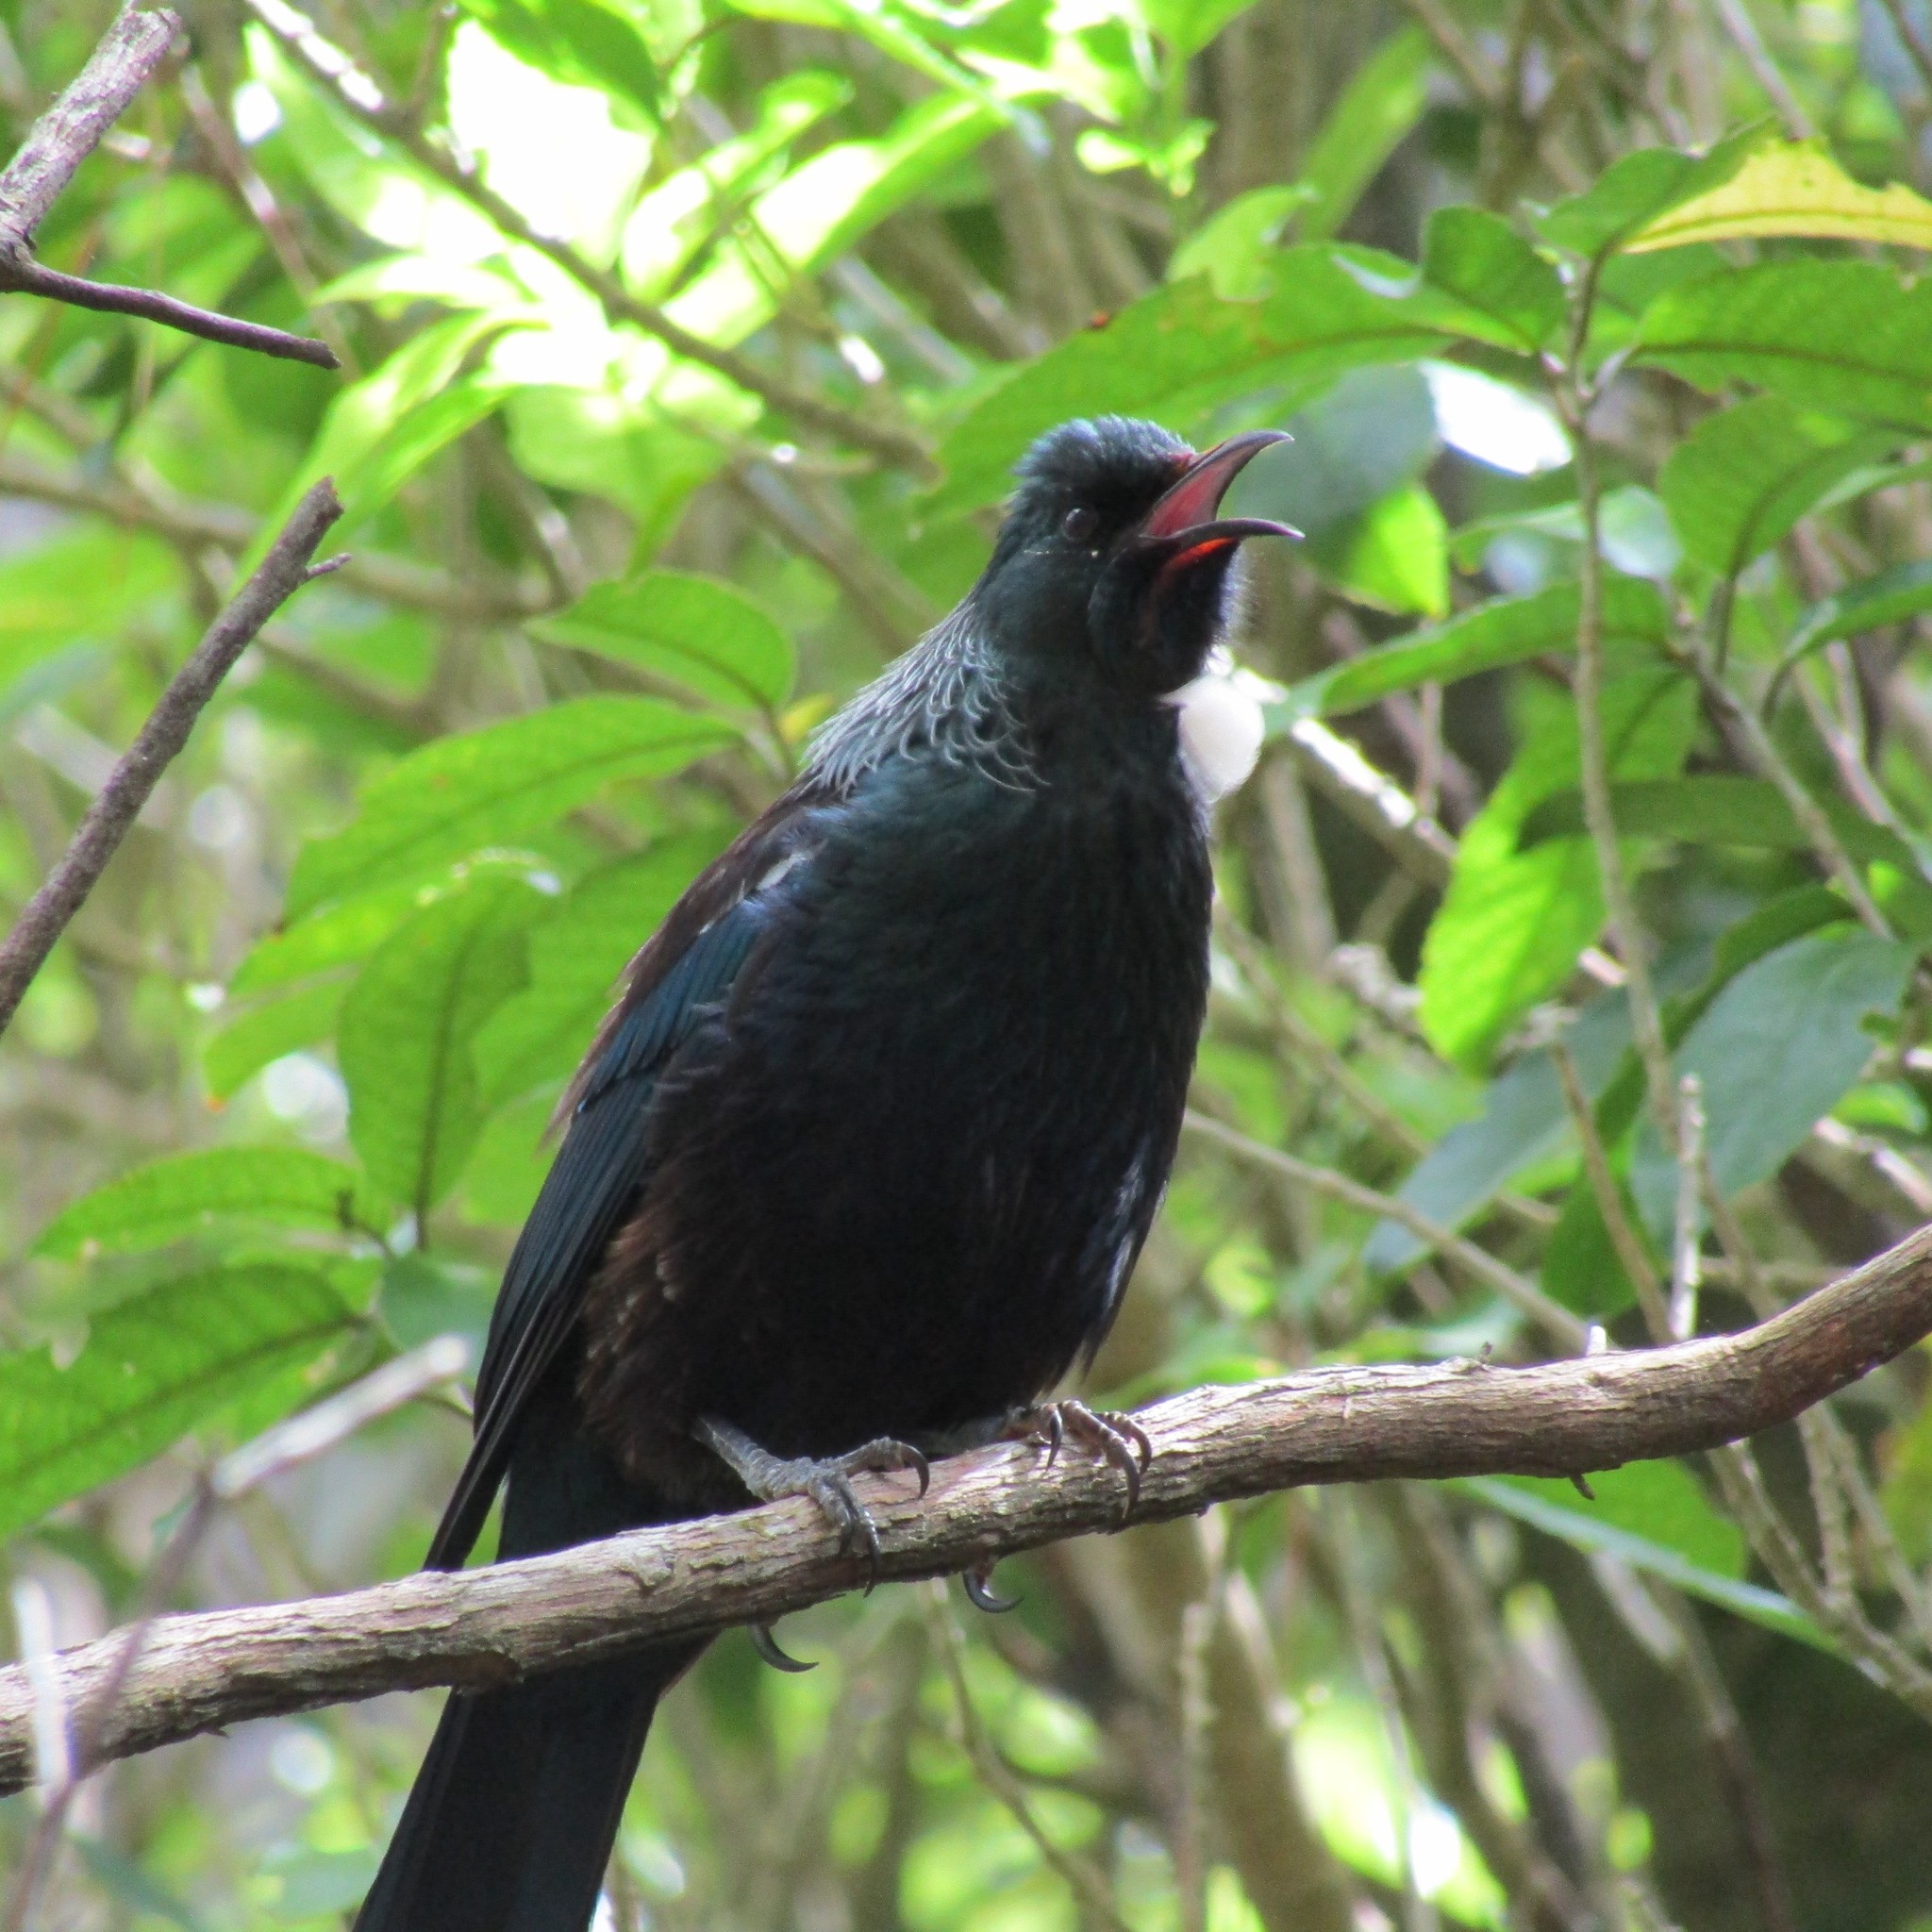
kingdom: Animalia
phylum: Chordata
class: Aves
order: Passeriformes
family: Meliphagidae
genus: Prosthemadera
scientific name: Prosthemadera novaeseelandiae
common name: Tui
